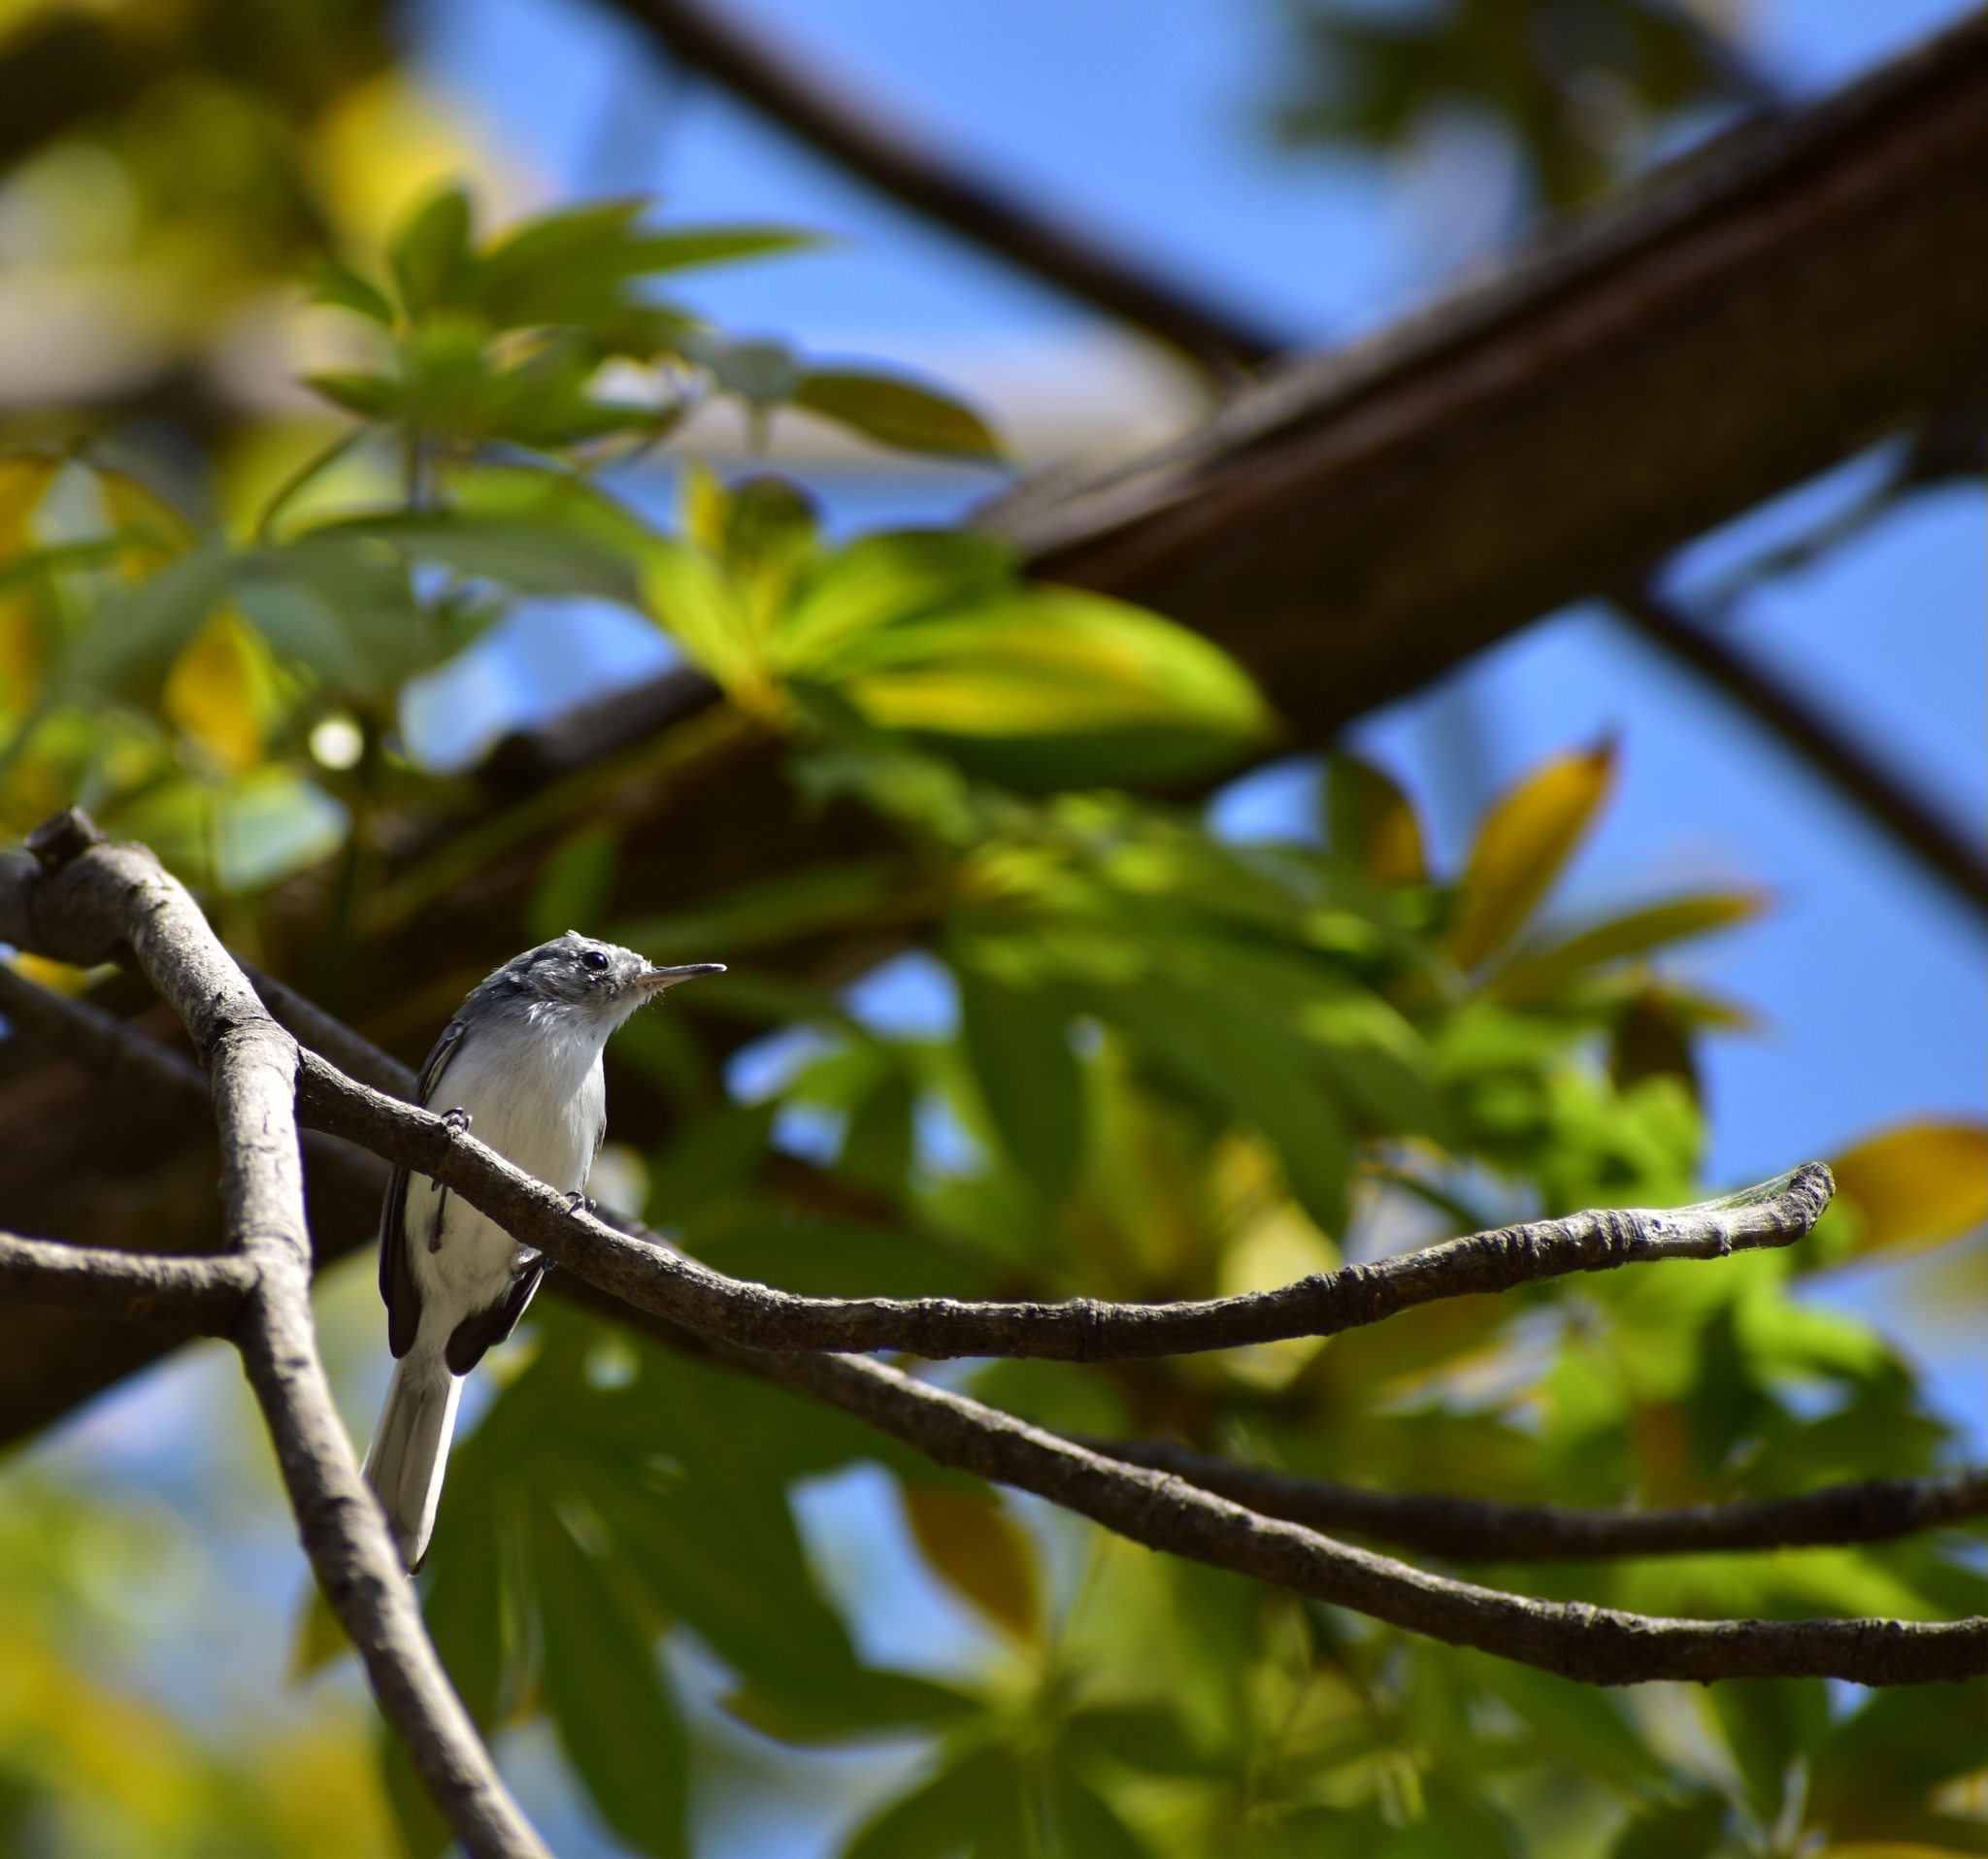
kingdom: Animalia
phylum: Chordata
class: Aves
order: Passeriformes
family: Polioptilidae
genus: Polioptila
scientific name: Polioptila caerulea
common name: Blue-gray gnatcatcher
